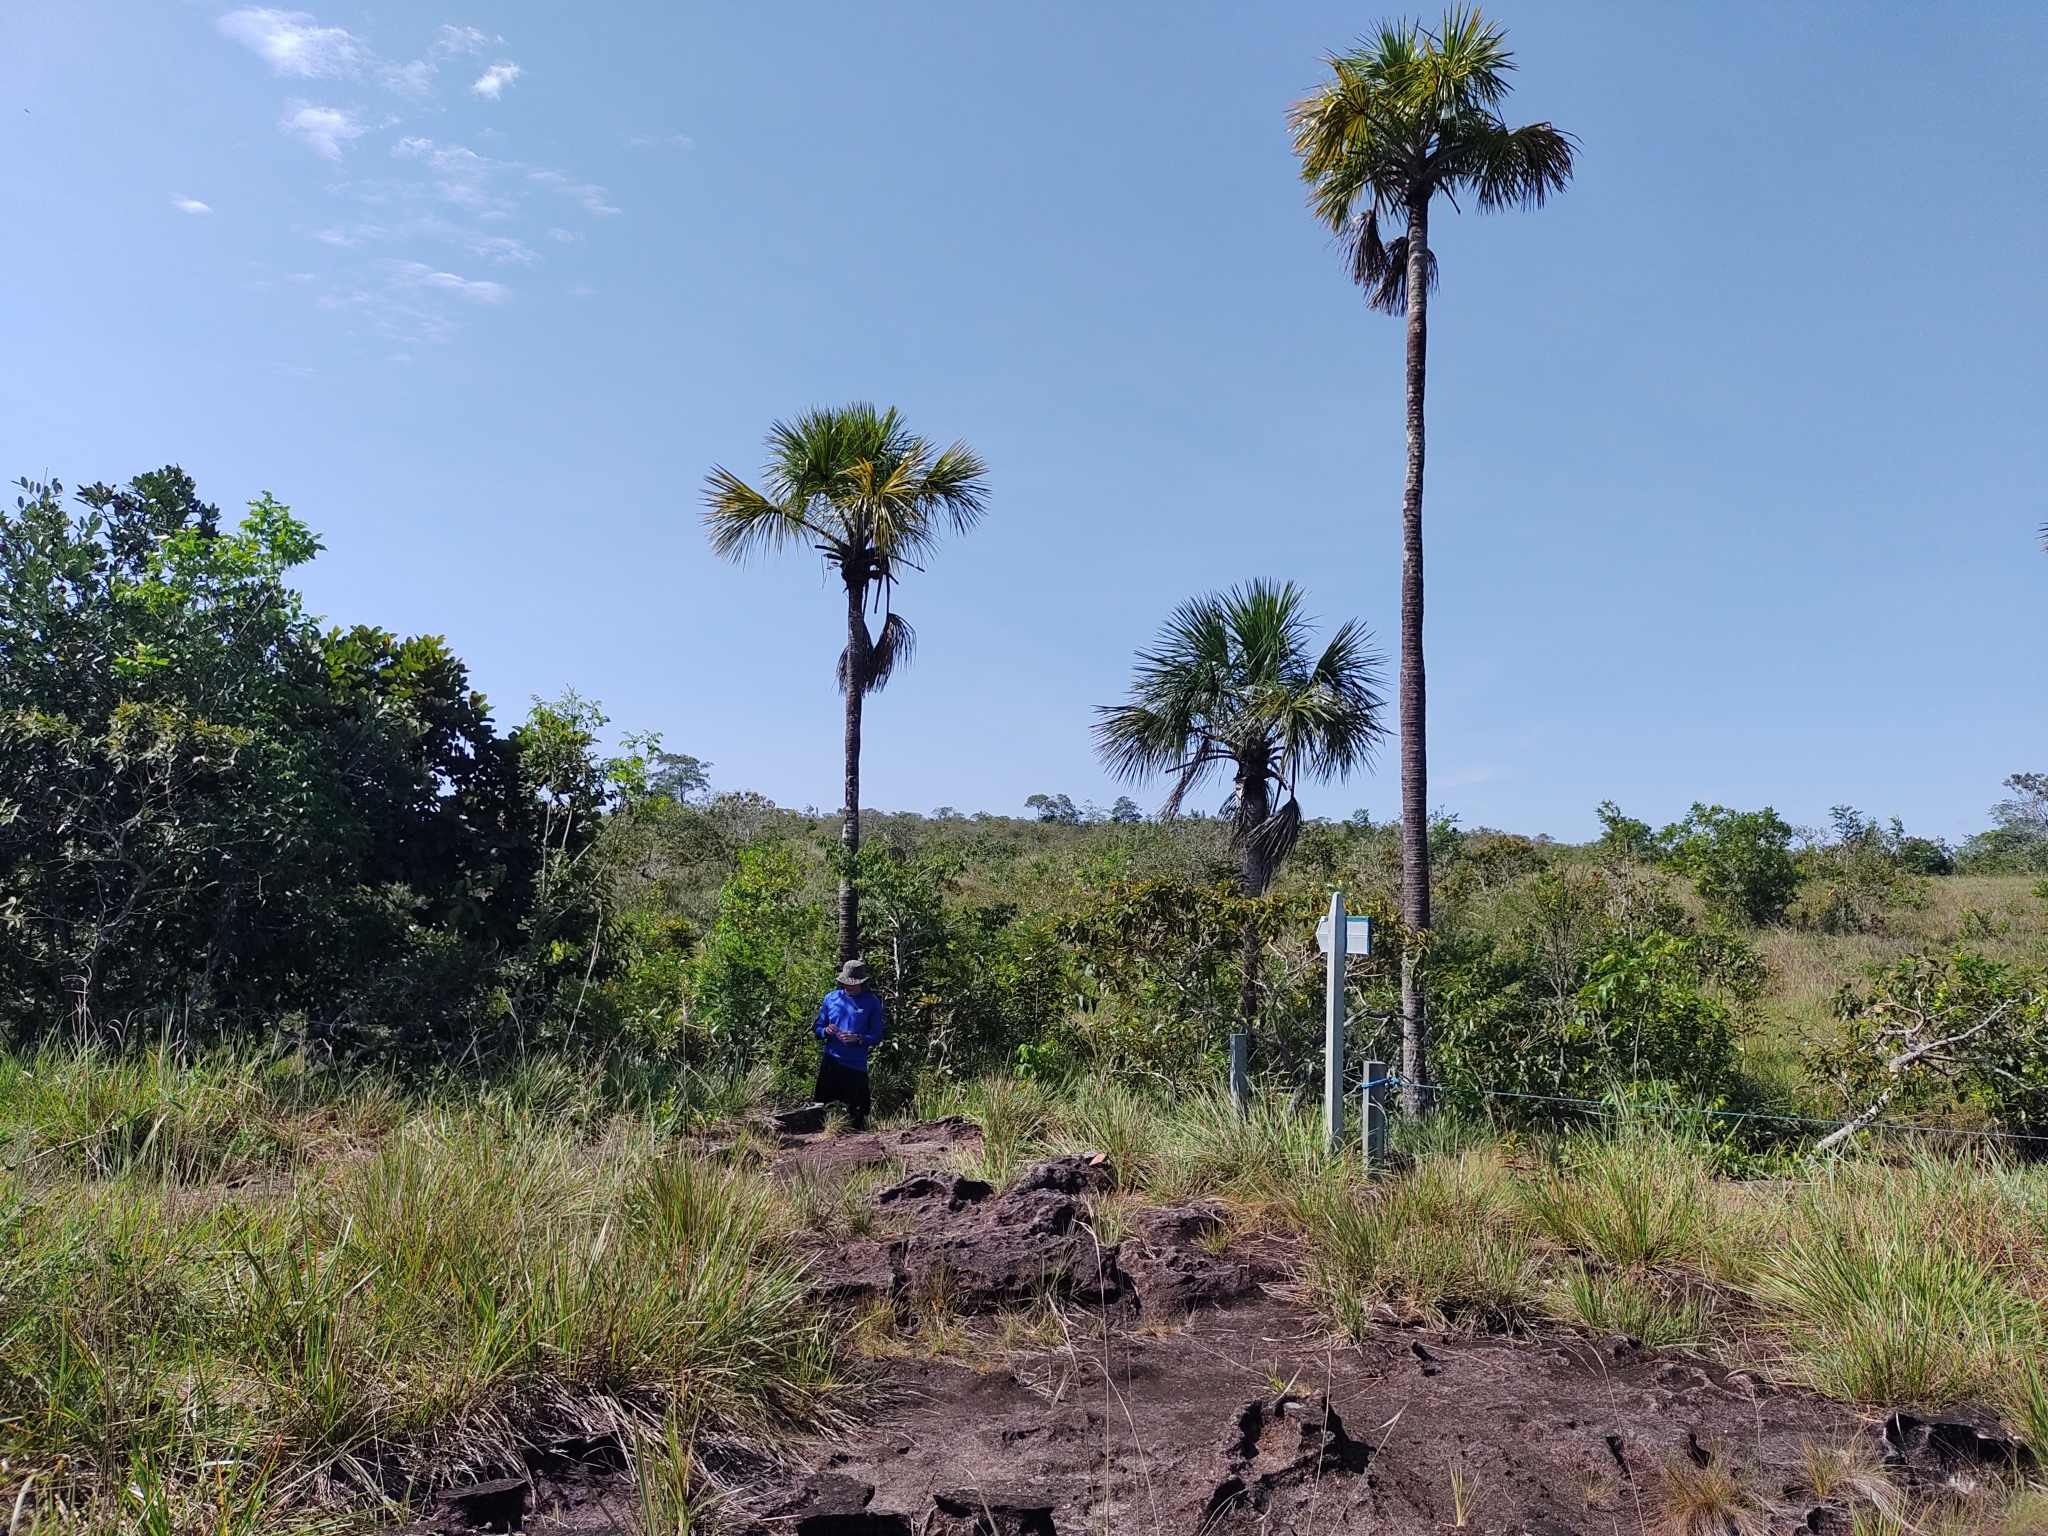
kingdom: Plantae
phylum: Tracheophyta
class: Liliopsida
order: Arecales
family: Arecaceae
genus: Mauritia
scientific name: Mauritia flexuosa
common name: Tree-of-life
